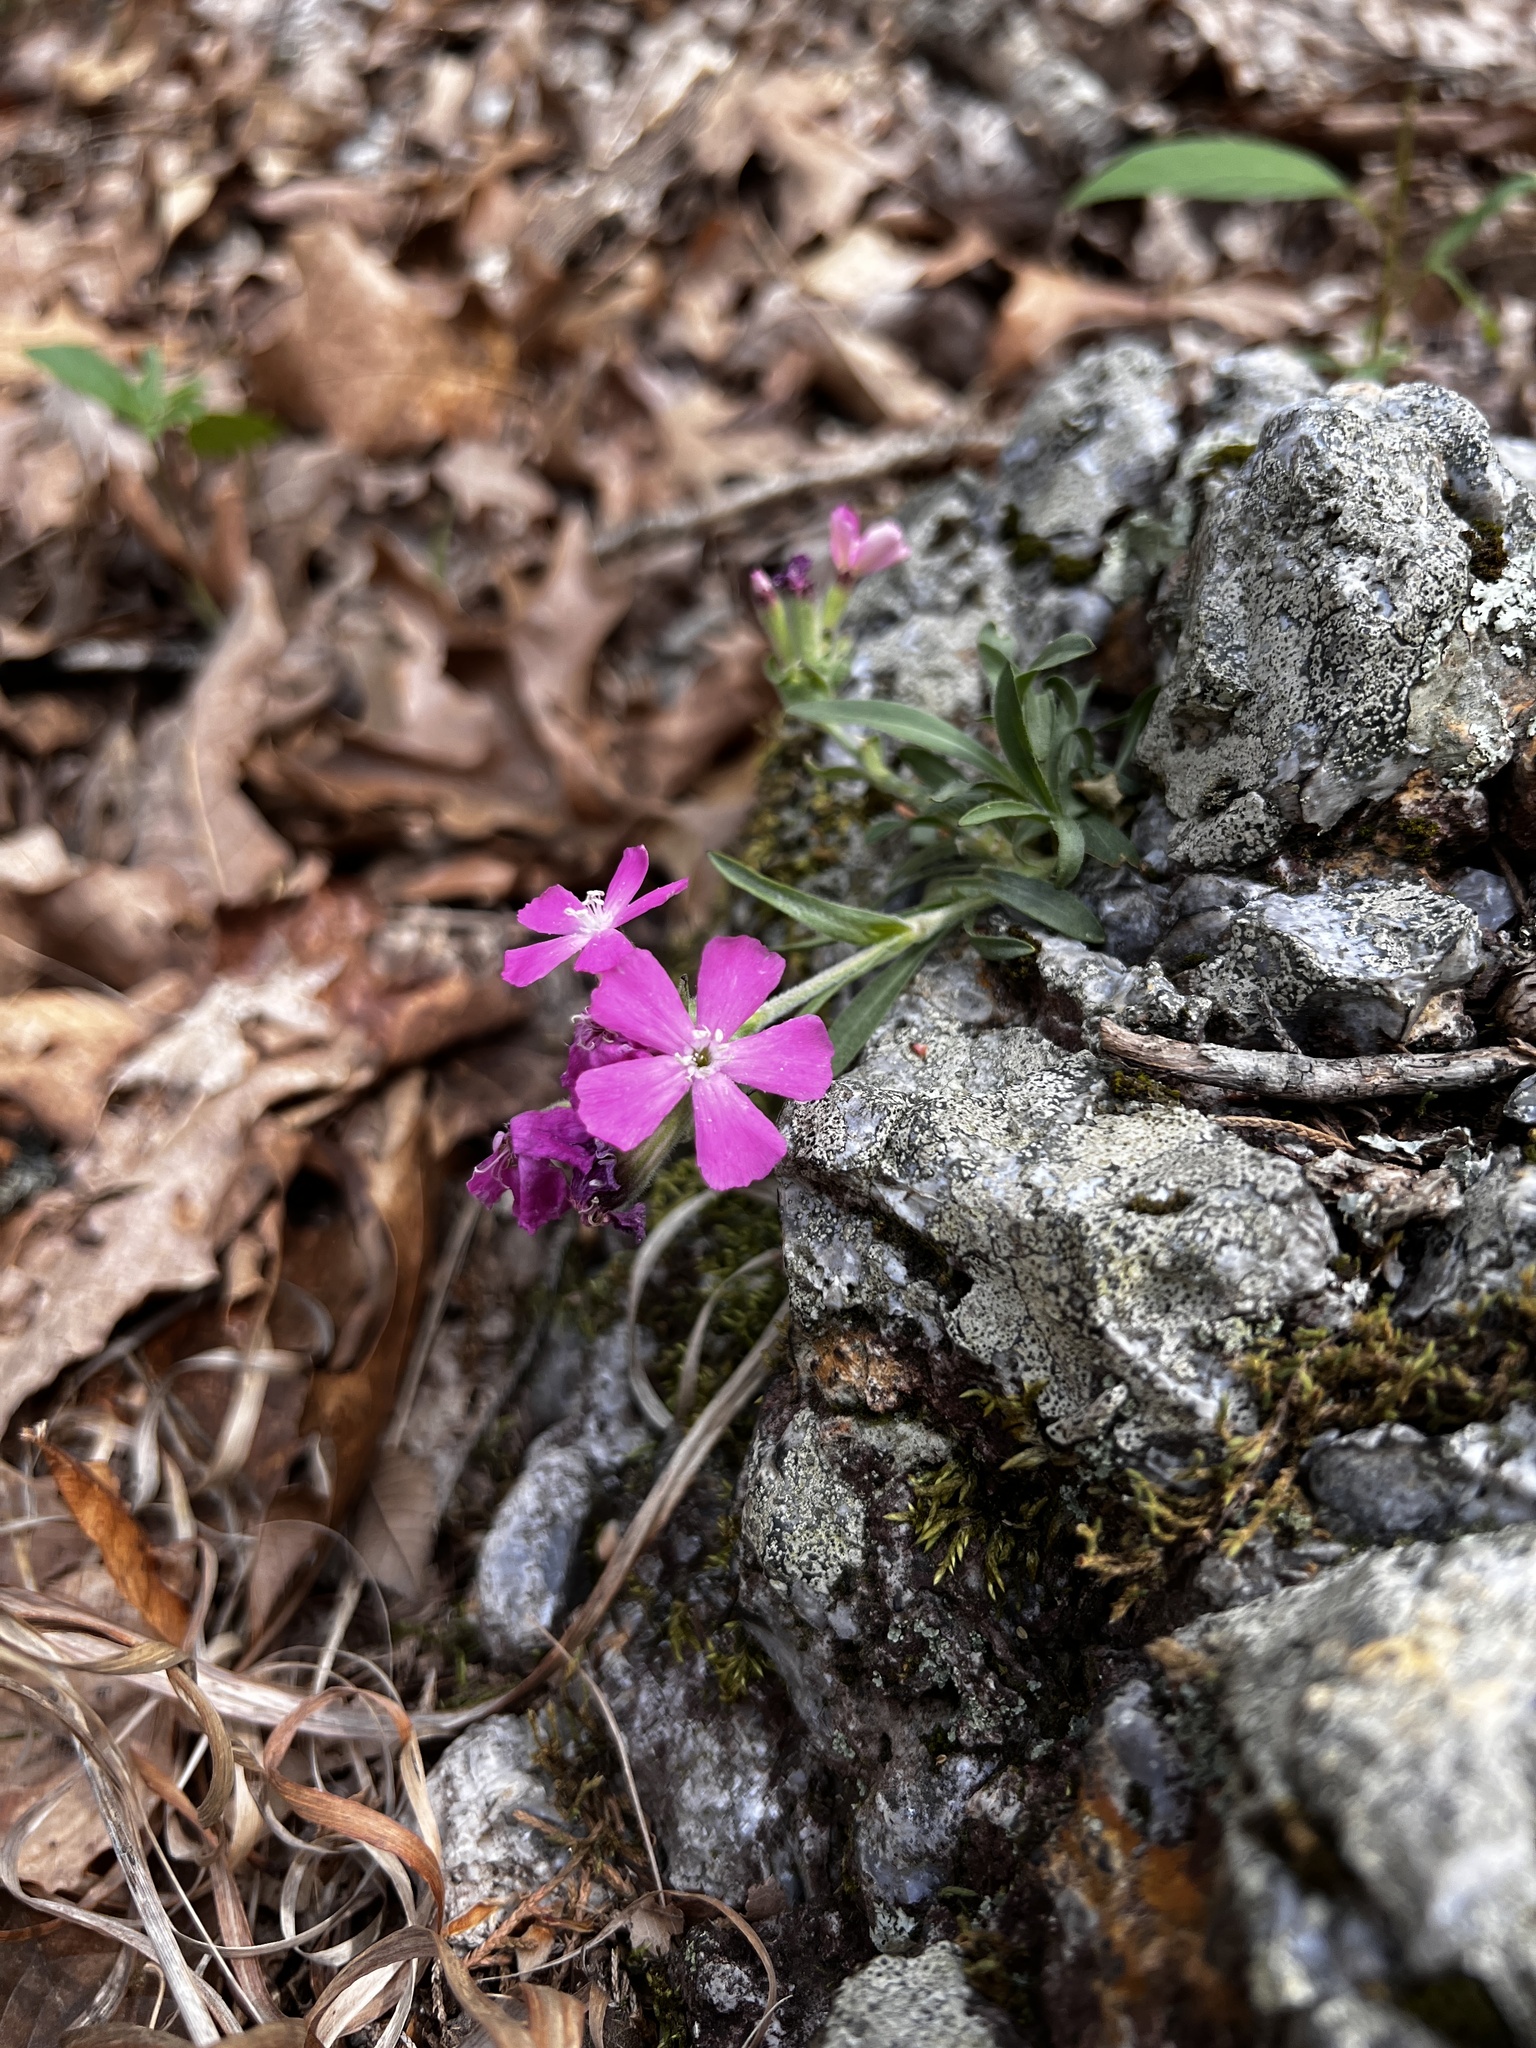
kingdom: Plantae
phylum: Tracheophyta
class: Magnoliopsida
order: Caryophyllales
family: Caryophyllaceae
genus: Silene
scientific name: Silene caroliniana
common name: Sticky catchfly
